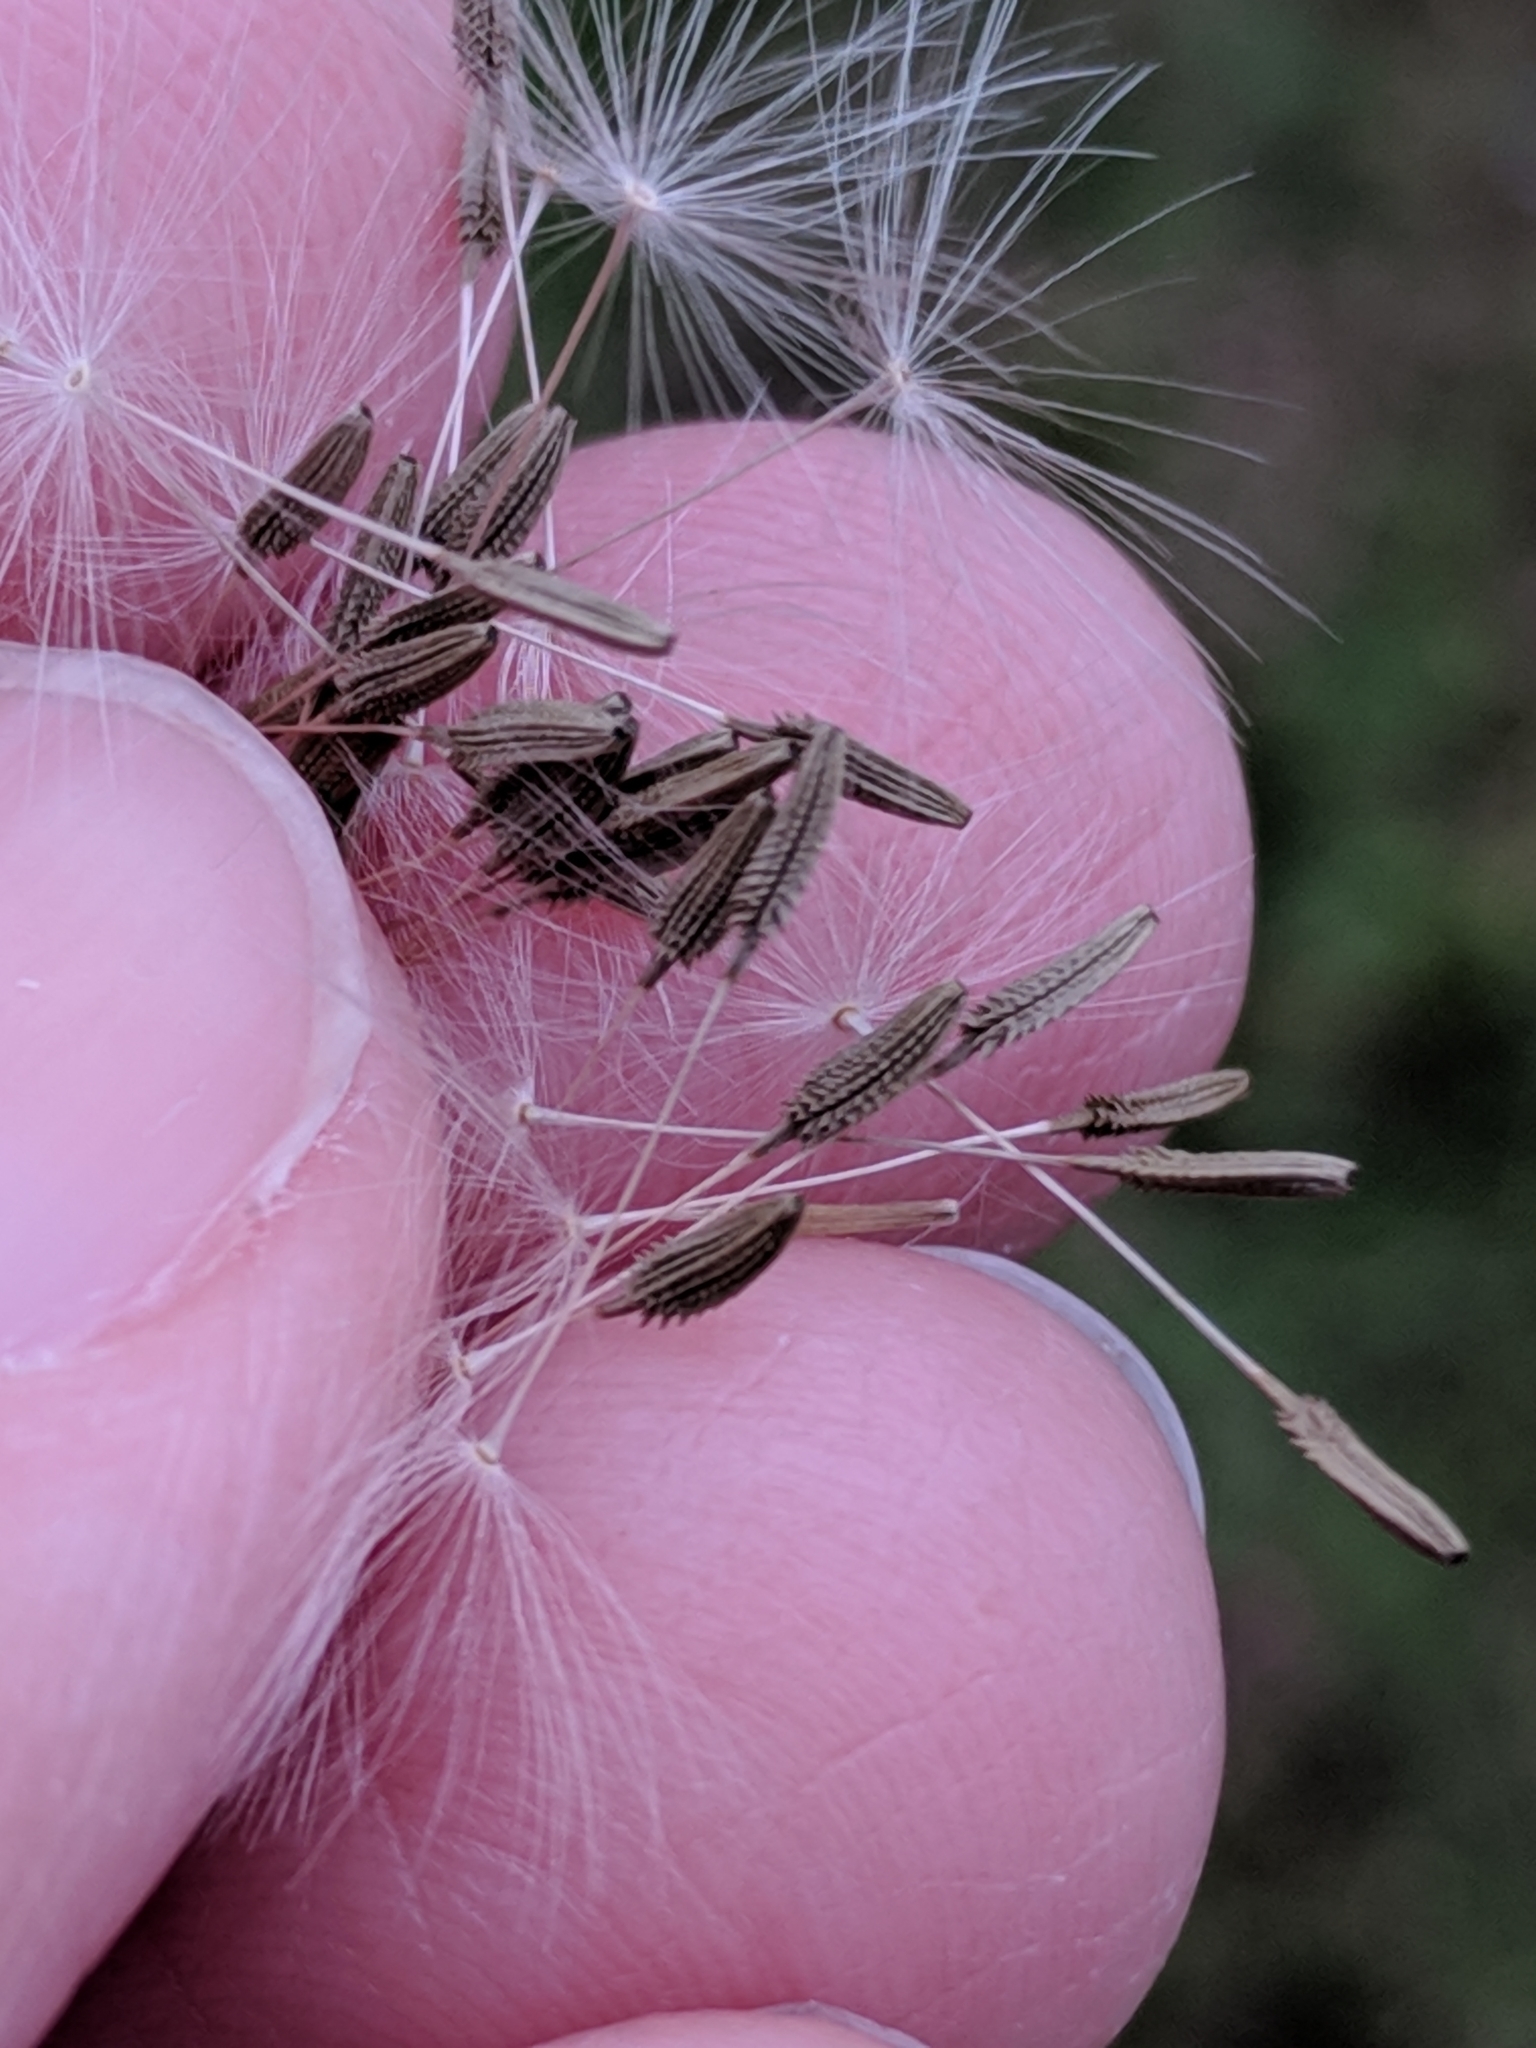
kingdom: Plantae
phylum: Tracheophyta
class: Magnoliopsida
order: Asterales
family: Asteraceae
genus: Taraxacum
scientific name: Taraxacum officinale
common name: Common dandelion
